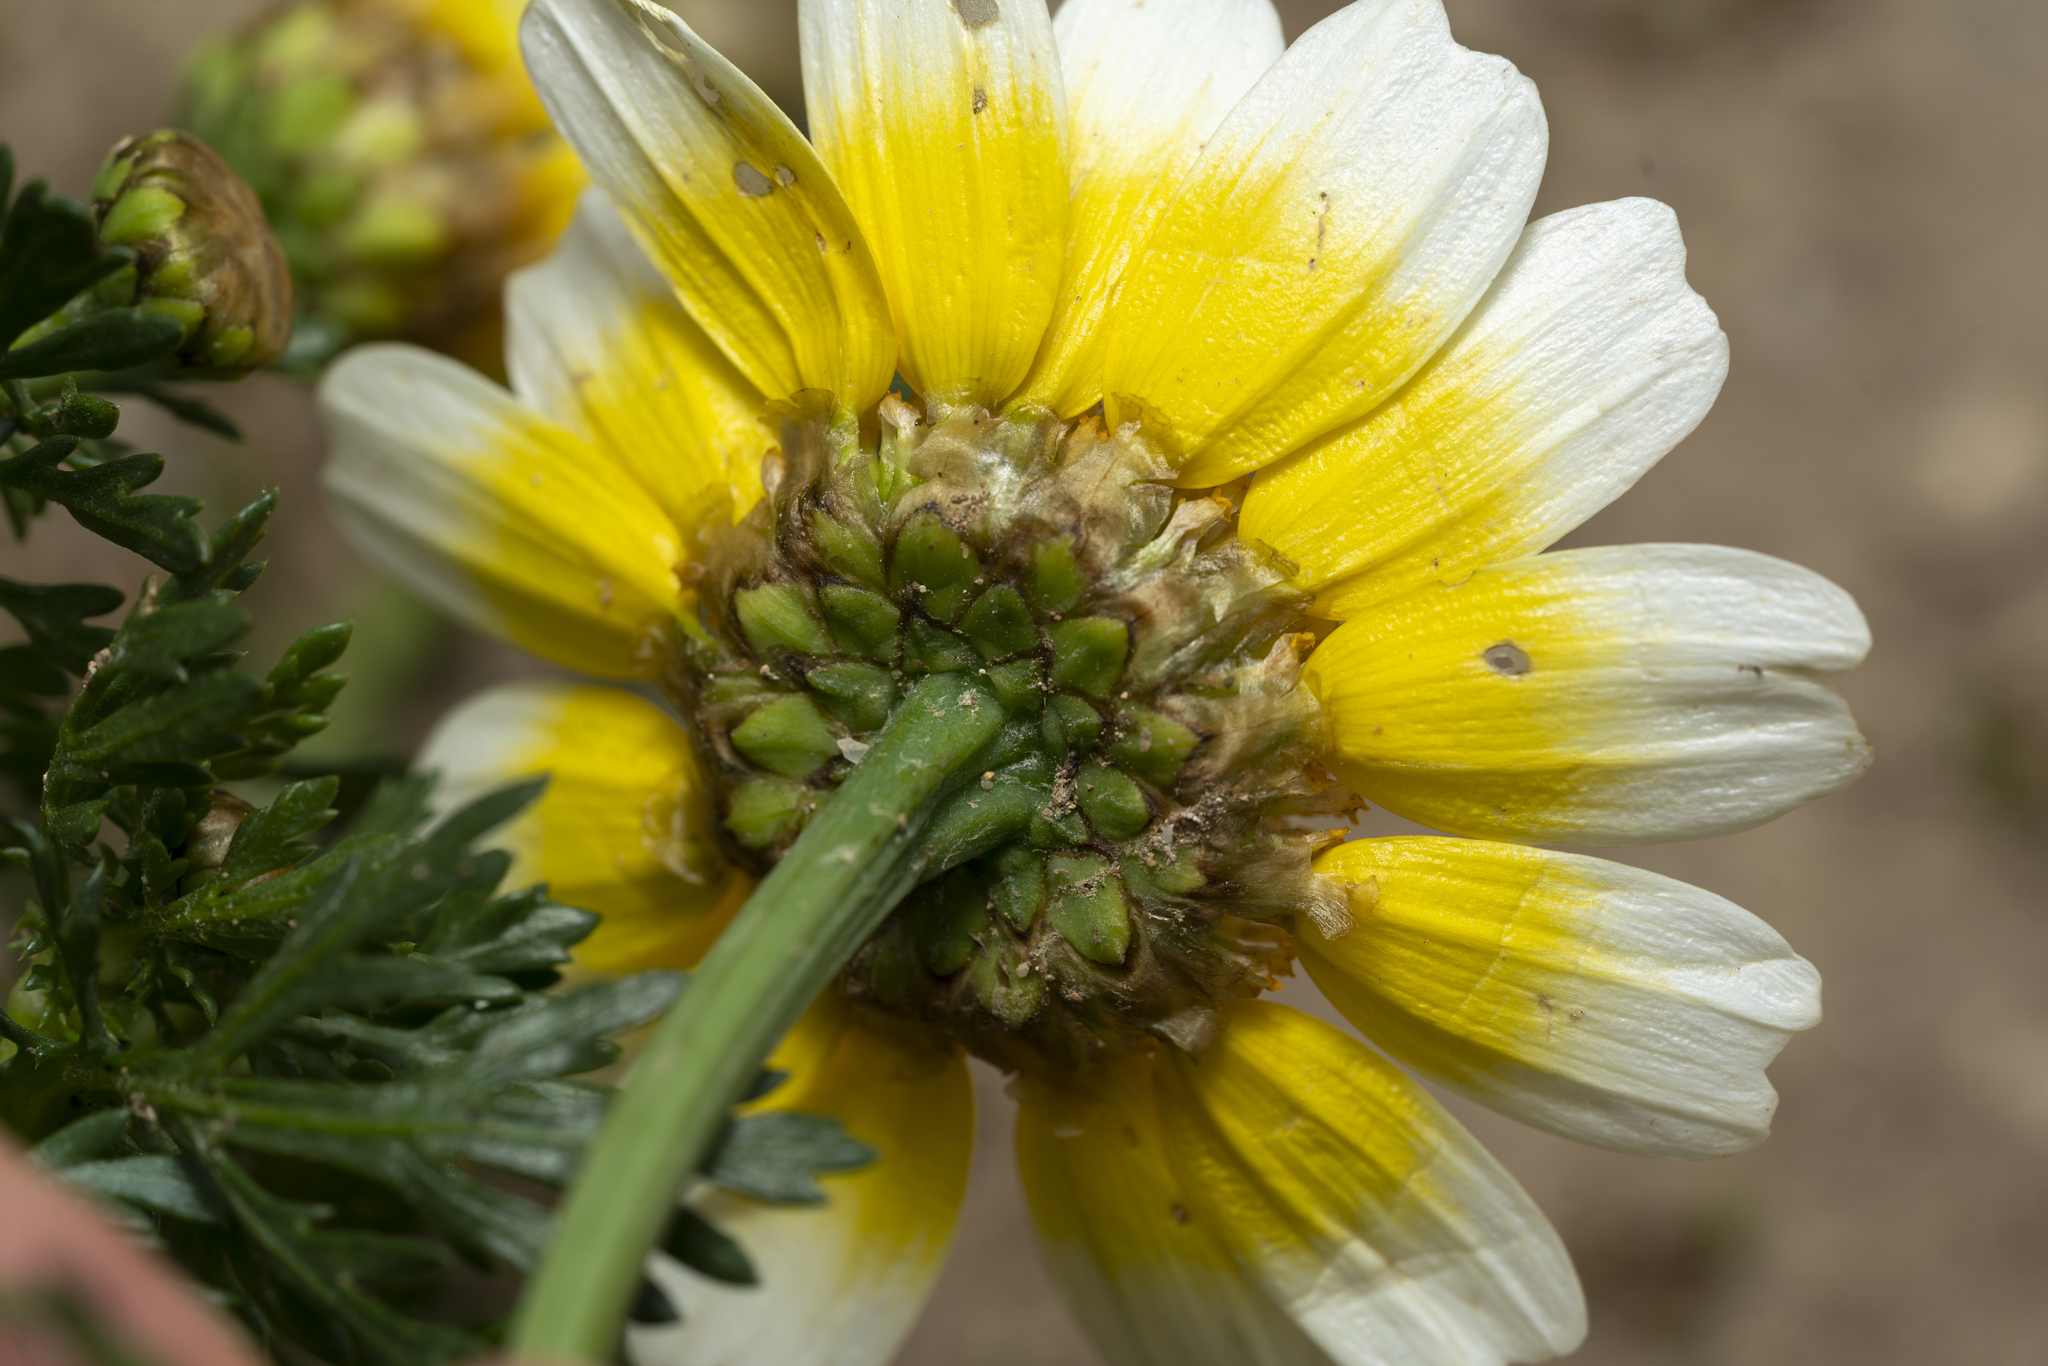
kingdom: Plantae
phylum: Tracheophyta
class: Magnoliopsida
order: Asterales
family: Asteraceae
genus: Glebionis
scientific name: Glebionis coronaria
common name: Crowndaisy
